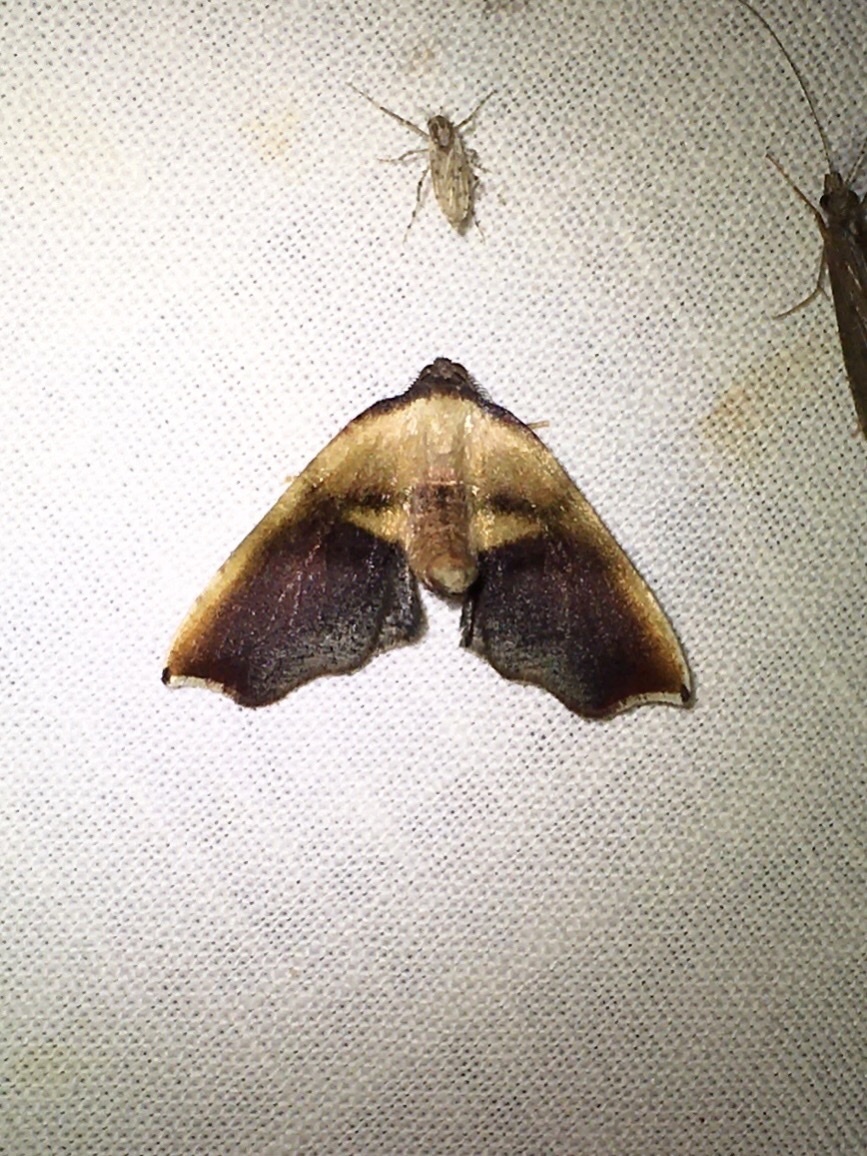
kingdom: Animalia
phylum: Arthropoda
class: Insecta
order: Lepidoptera
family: Geometridae
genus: Plagodis
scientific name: Plagodis kuetzingi
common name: Purple plagodis
